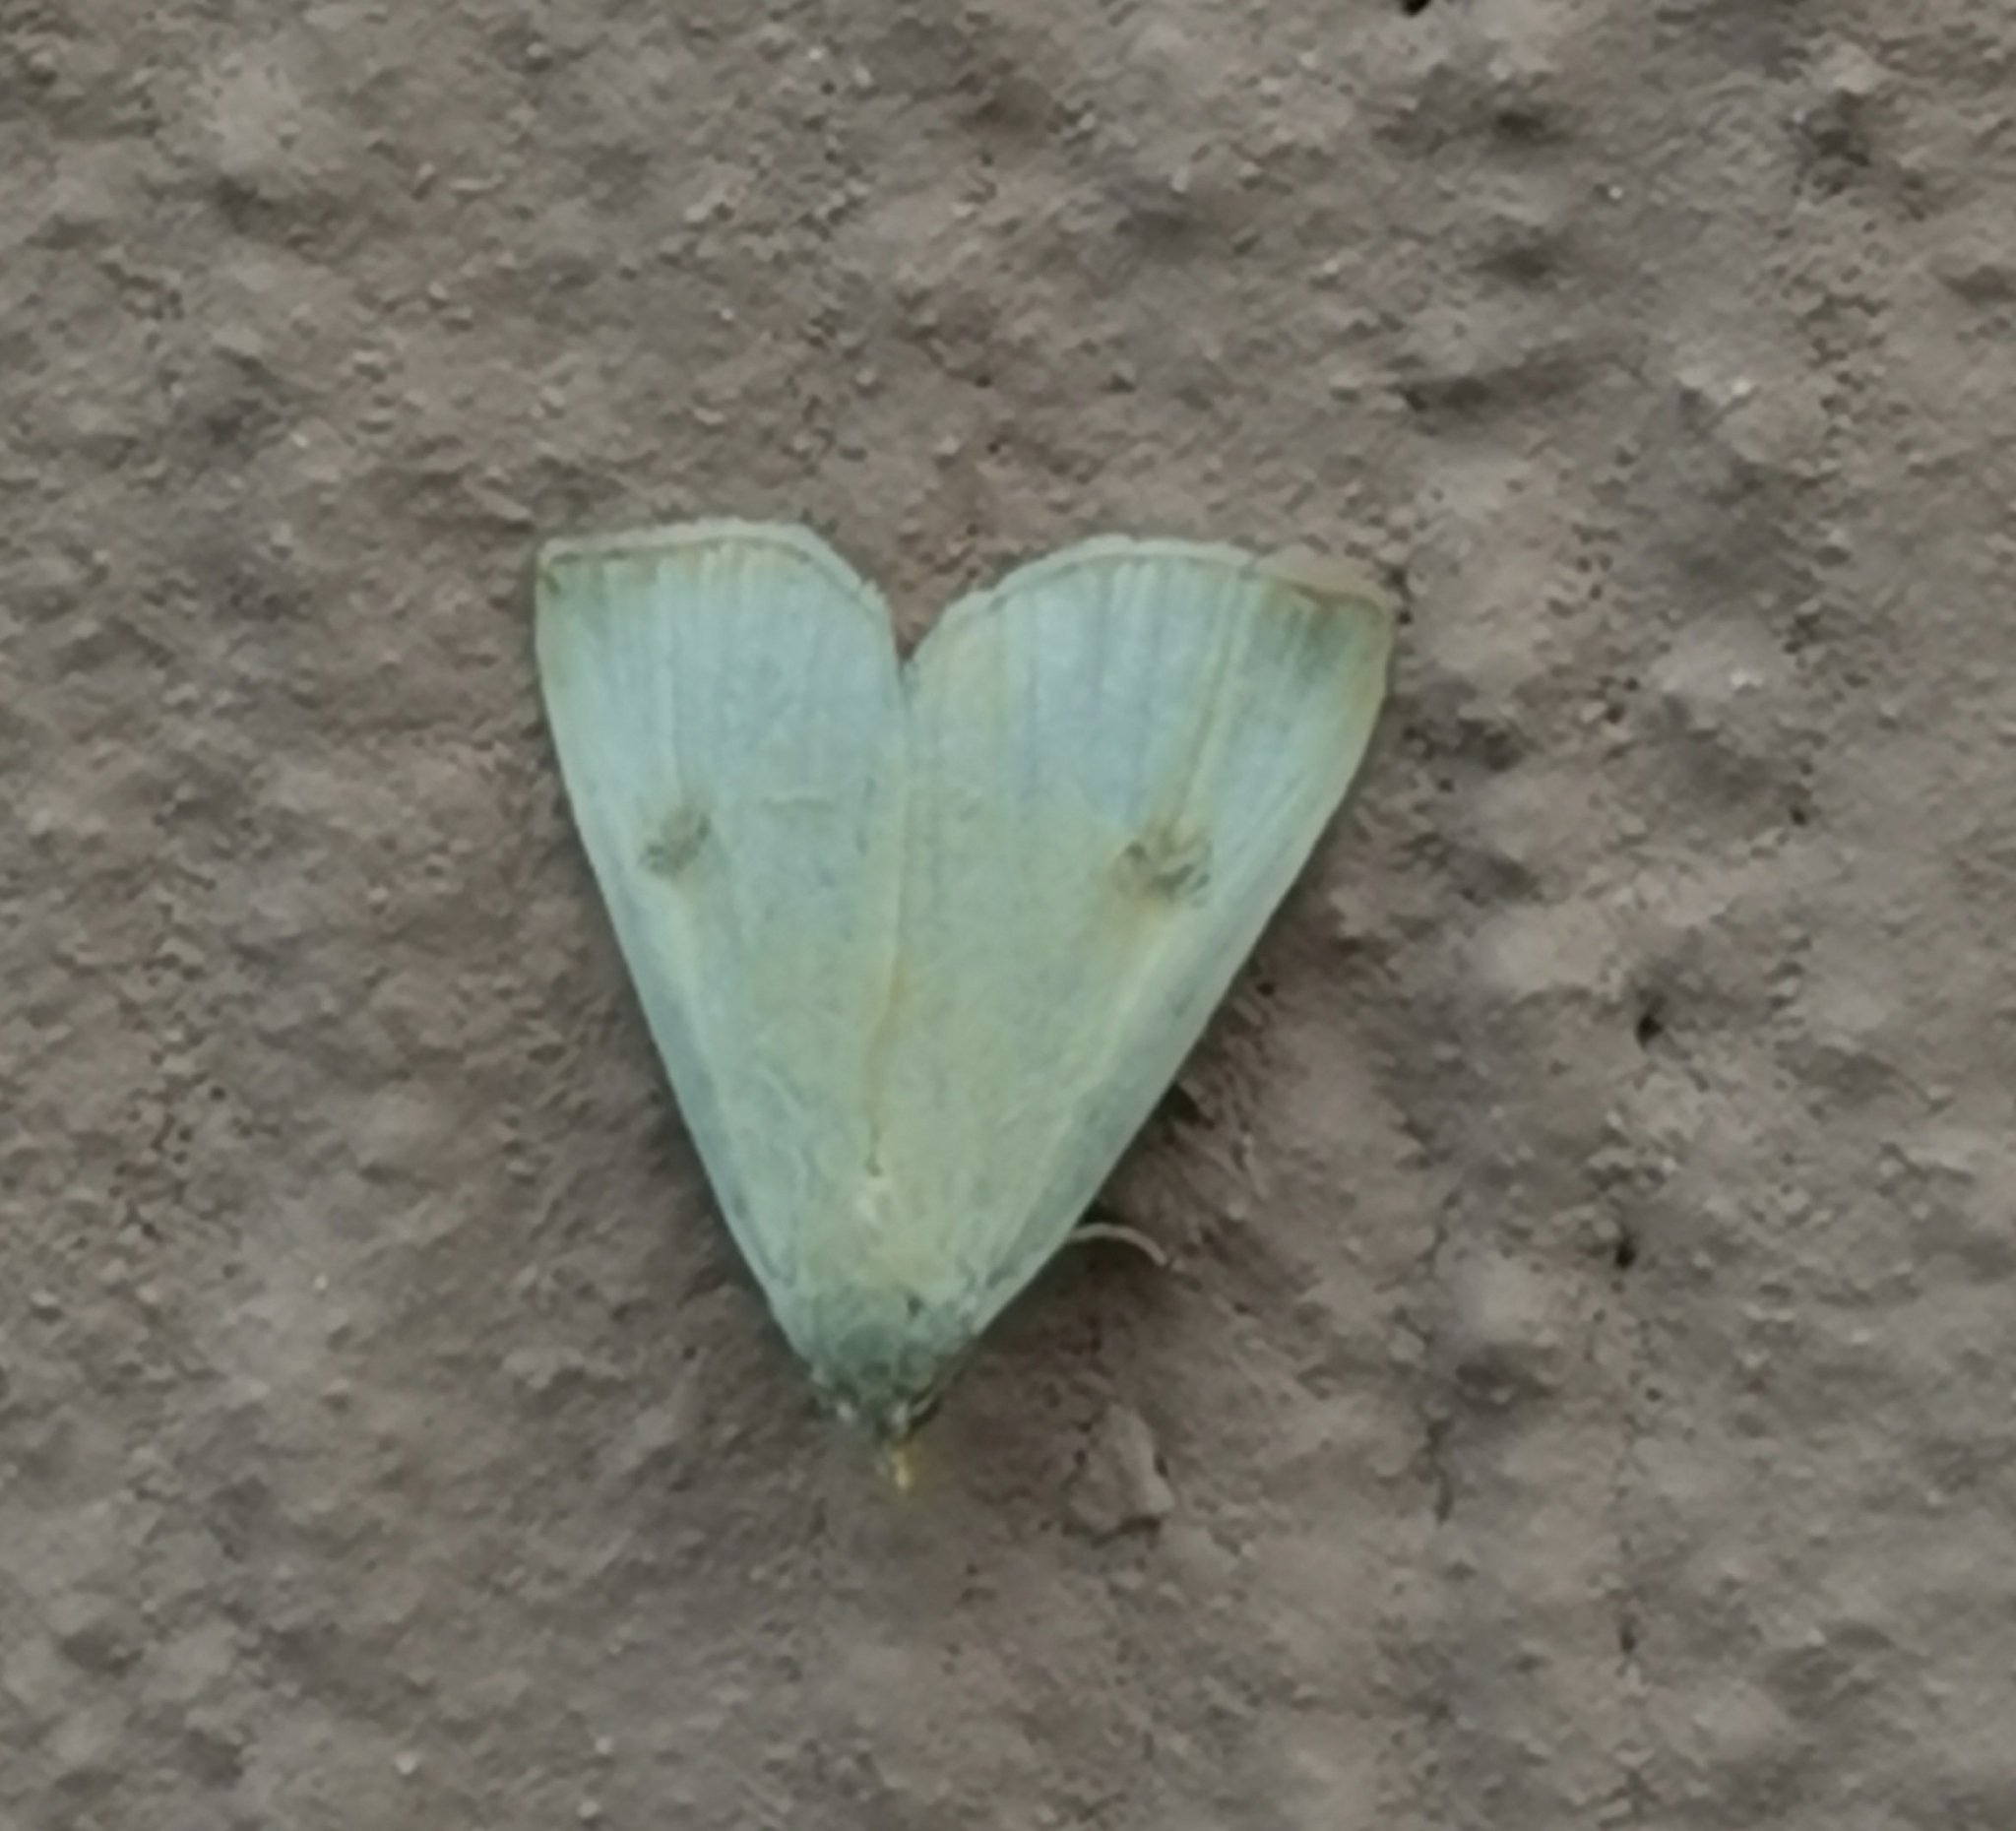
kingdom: Animalia
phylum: Arthropoda
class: Insecta
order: Lepidoptera
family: Erebidae
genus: Rivula
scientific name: Rivula sericealis
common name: Straw dot
